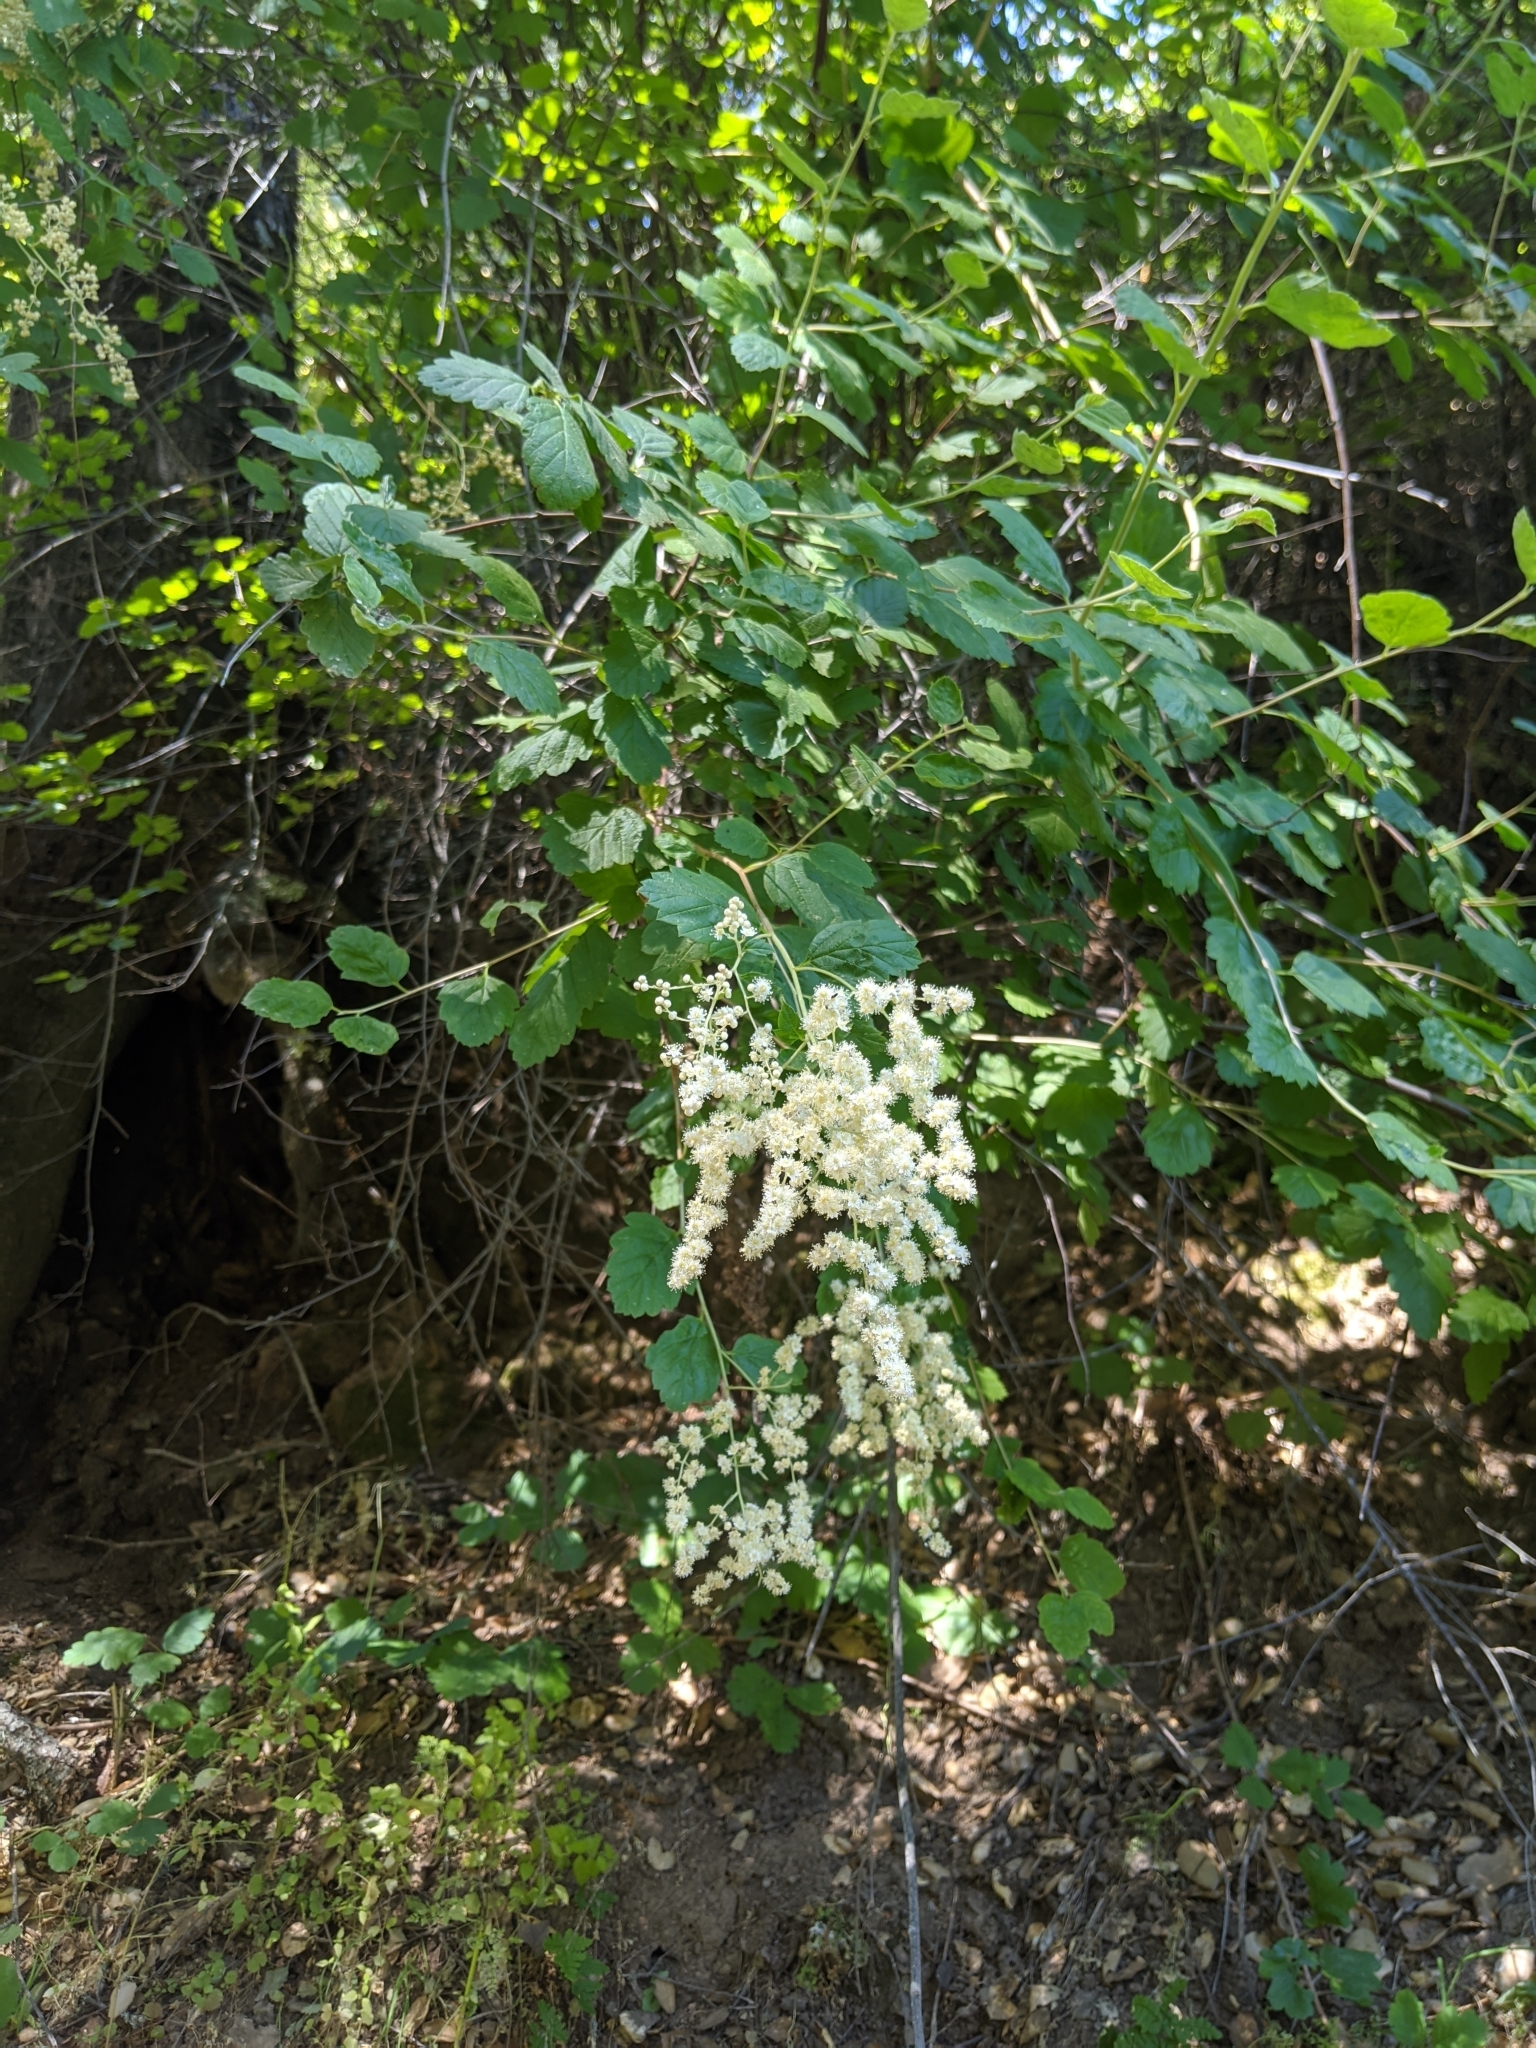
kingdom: Plantae
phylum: Tracheophyta
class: Magnoliopsida
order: Rosales
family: Rosaceae
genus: Holodiscus
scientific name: Holodiscus discolor
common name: Oceanspray
